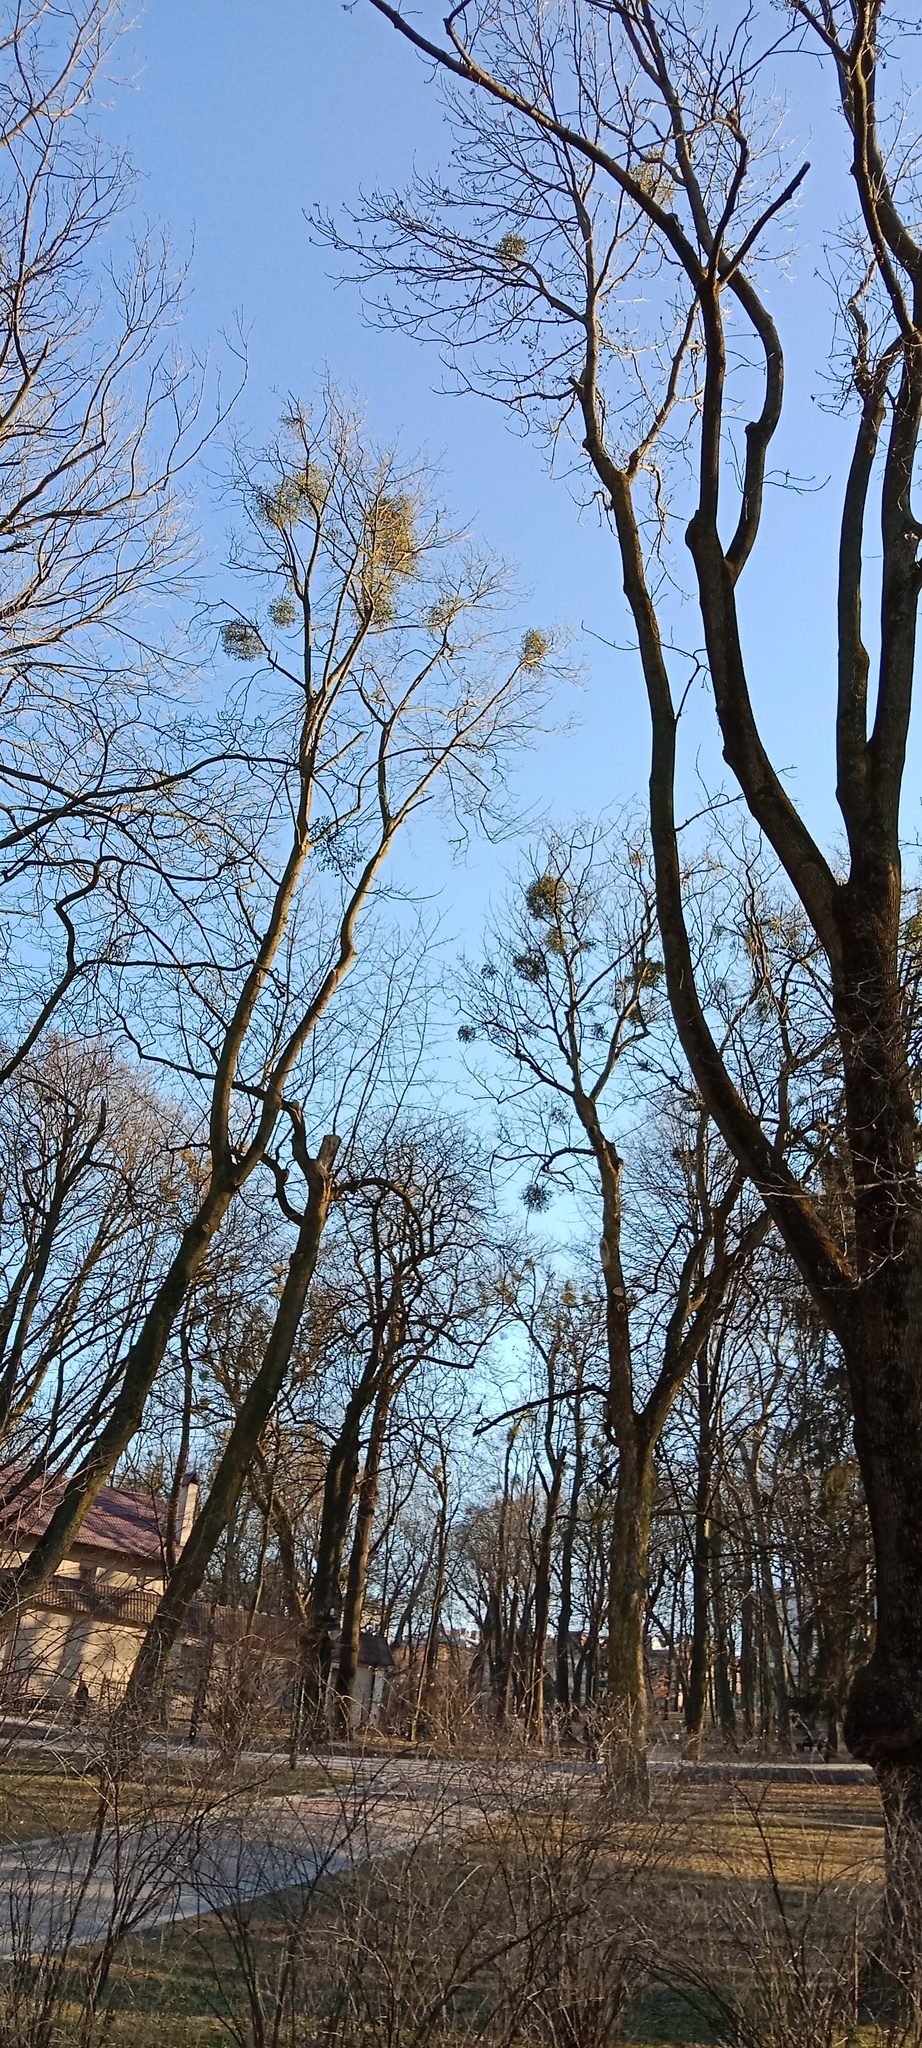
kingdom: Plantae
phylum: Tracheophyta
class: Magnoliopsida
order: Santalales
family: Viscaceae
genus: Viscum
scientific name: Viscum album
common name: Mistletoe
